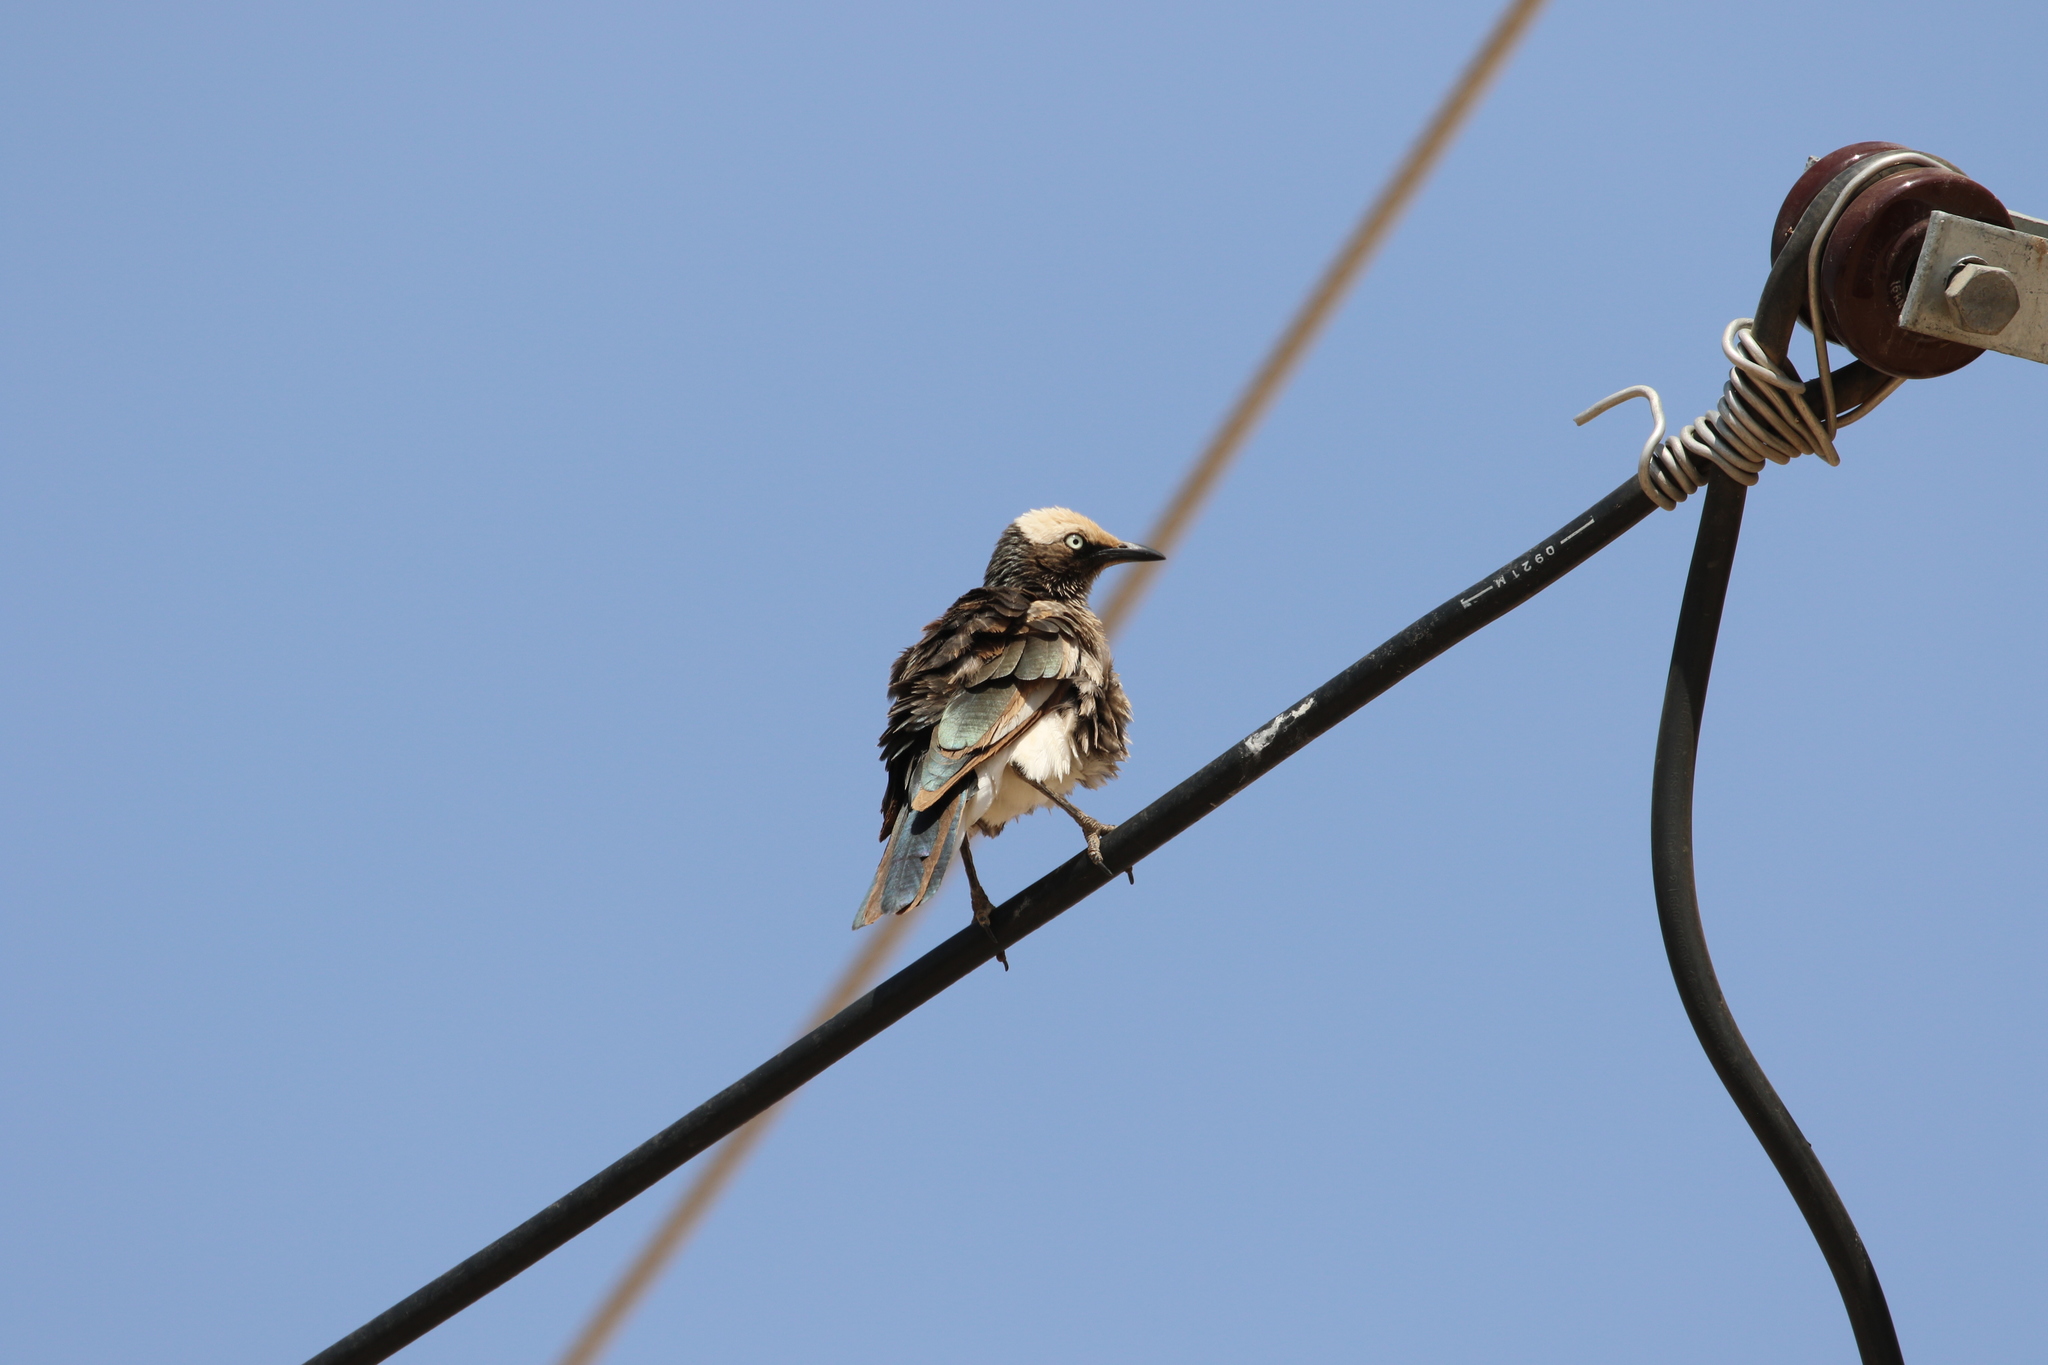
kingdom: Animalia
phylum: Chordata
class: Aves
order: Passeriformes
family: Sturnidae
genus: Lamprotornis
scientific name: Lamprotornis albicapillus
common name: White-crowned starling
